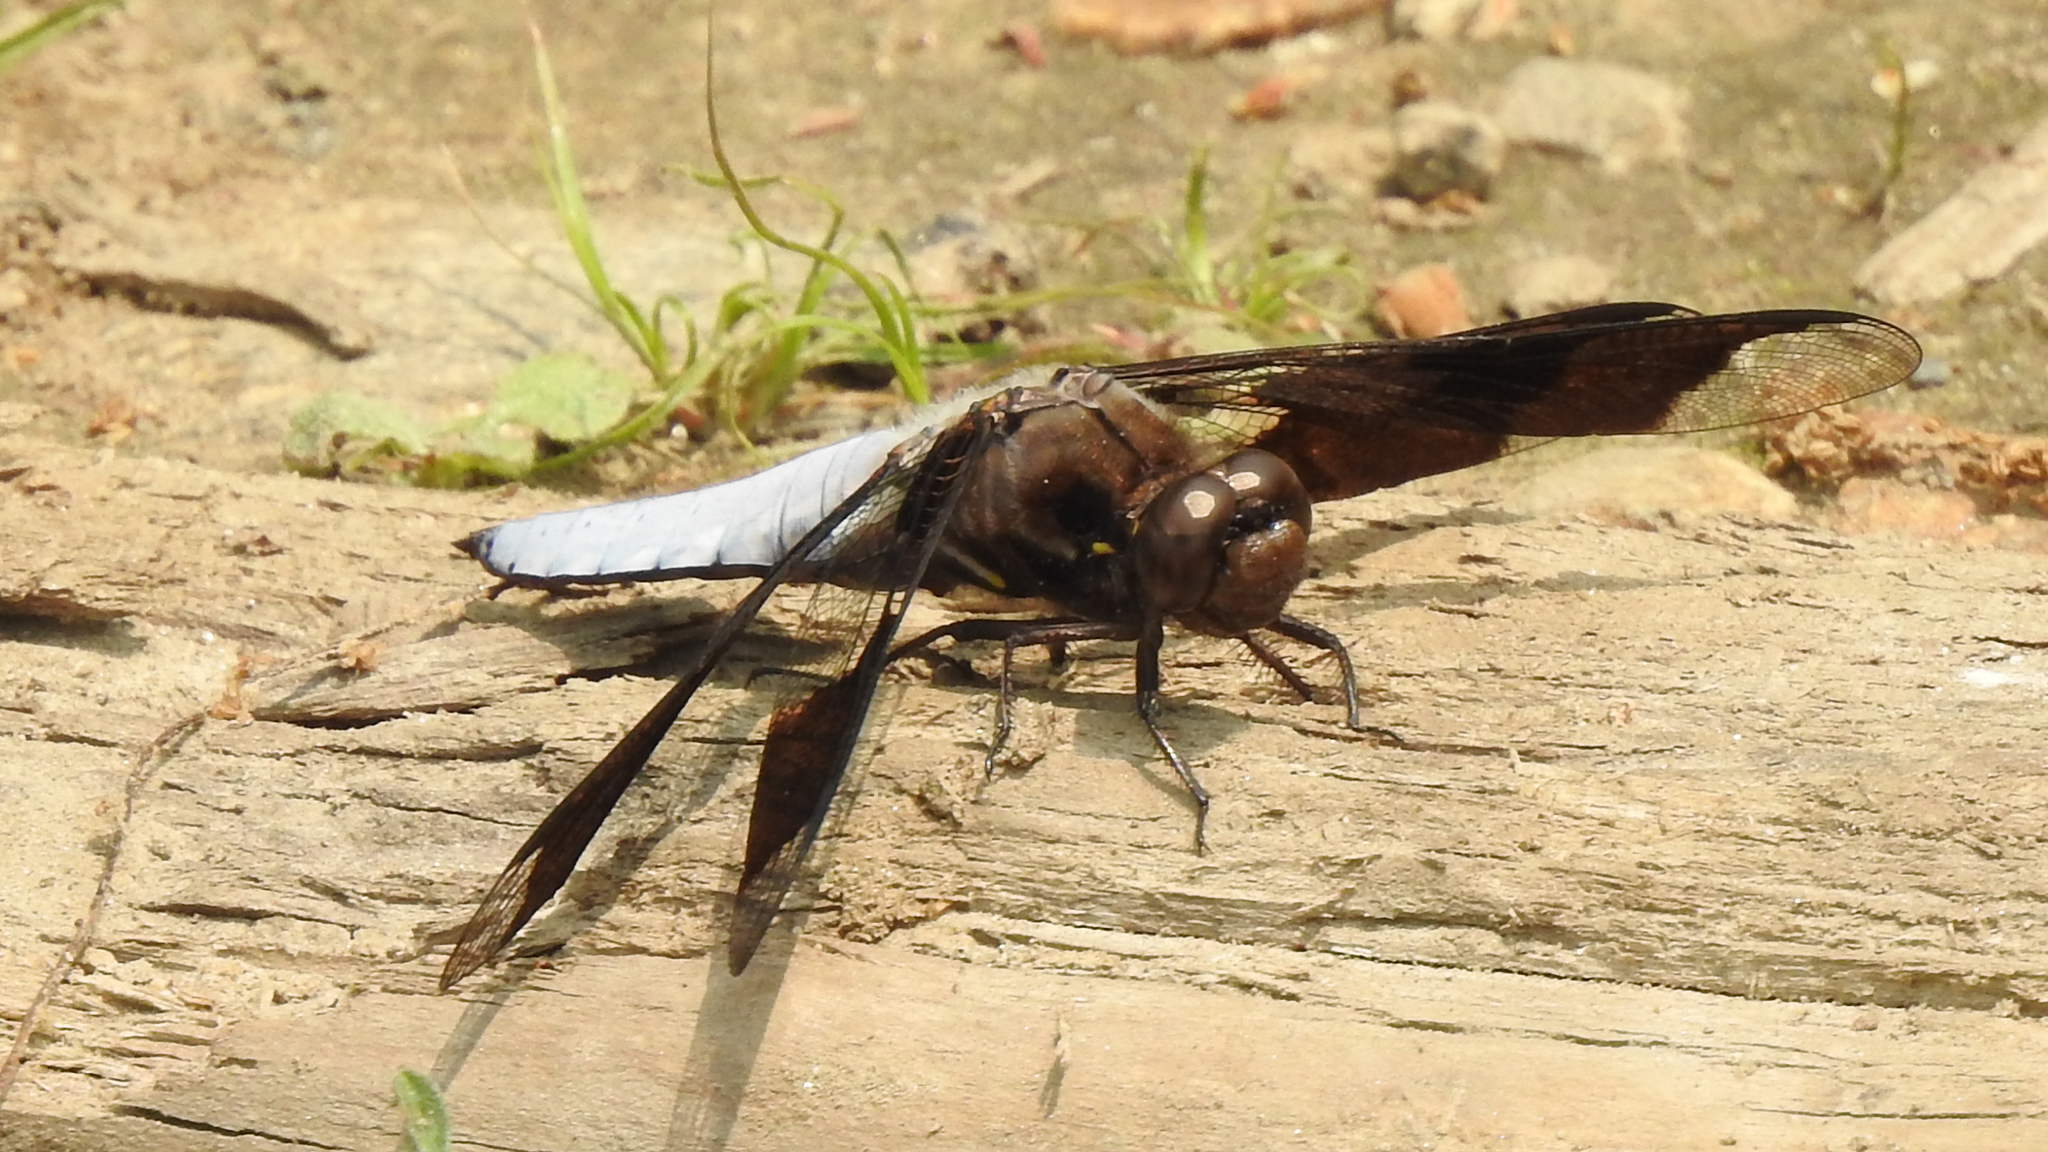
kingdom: Animalia
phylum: Arthropoda
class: Insecta
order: Odonata
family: Libellulidae
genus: Plathemis
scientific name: Plathemis lydia
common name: Common whitetail
